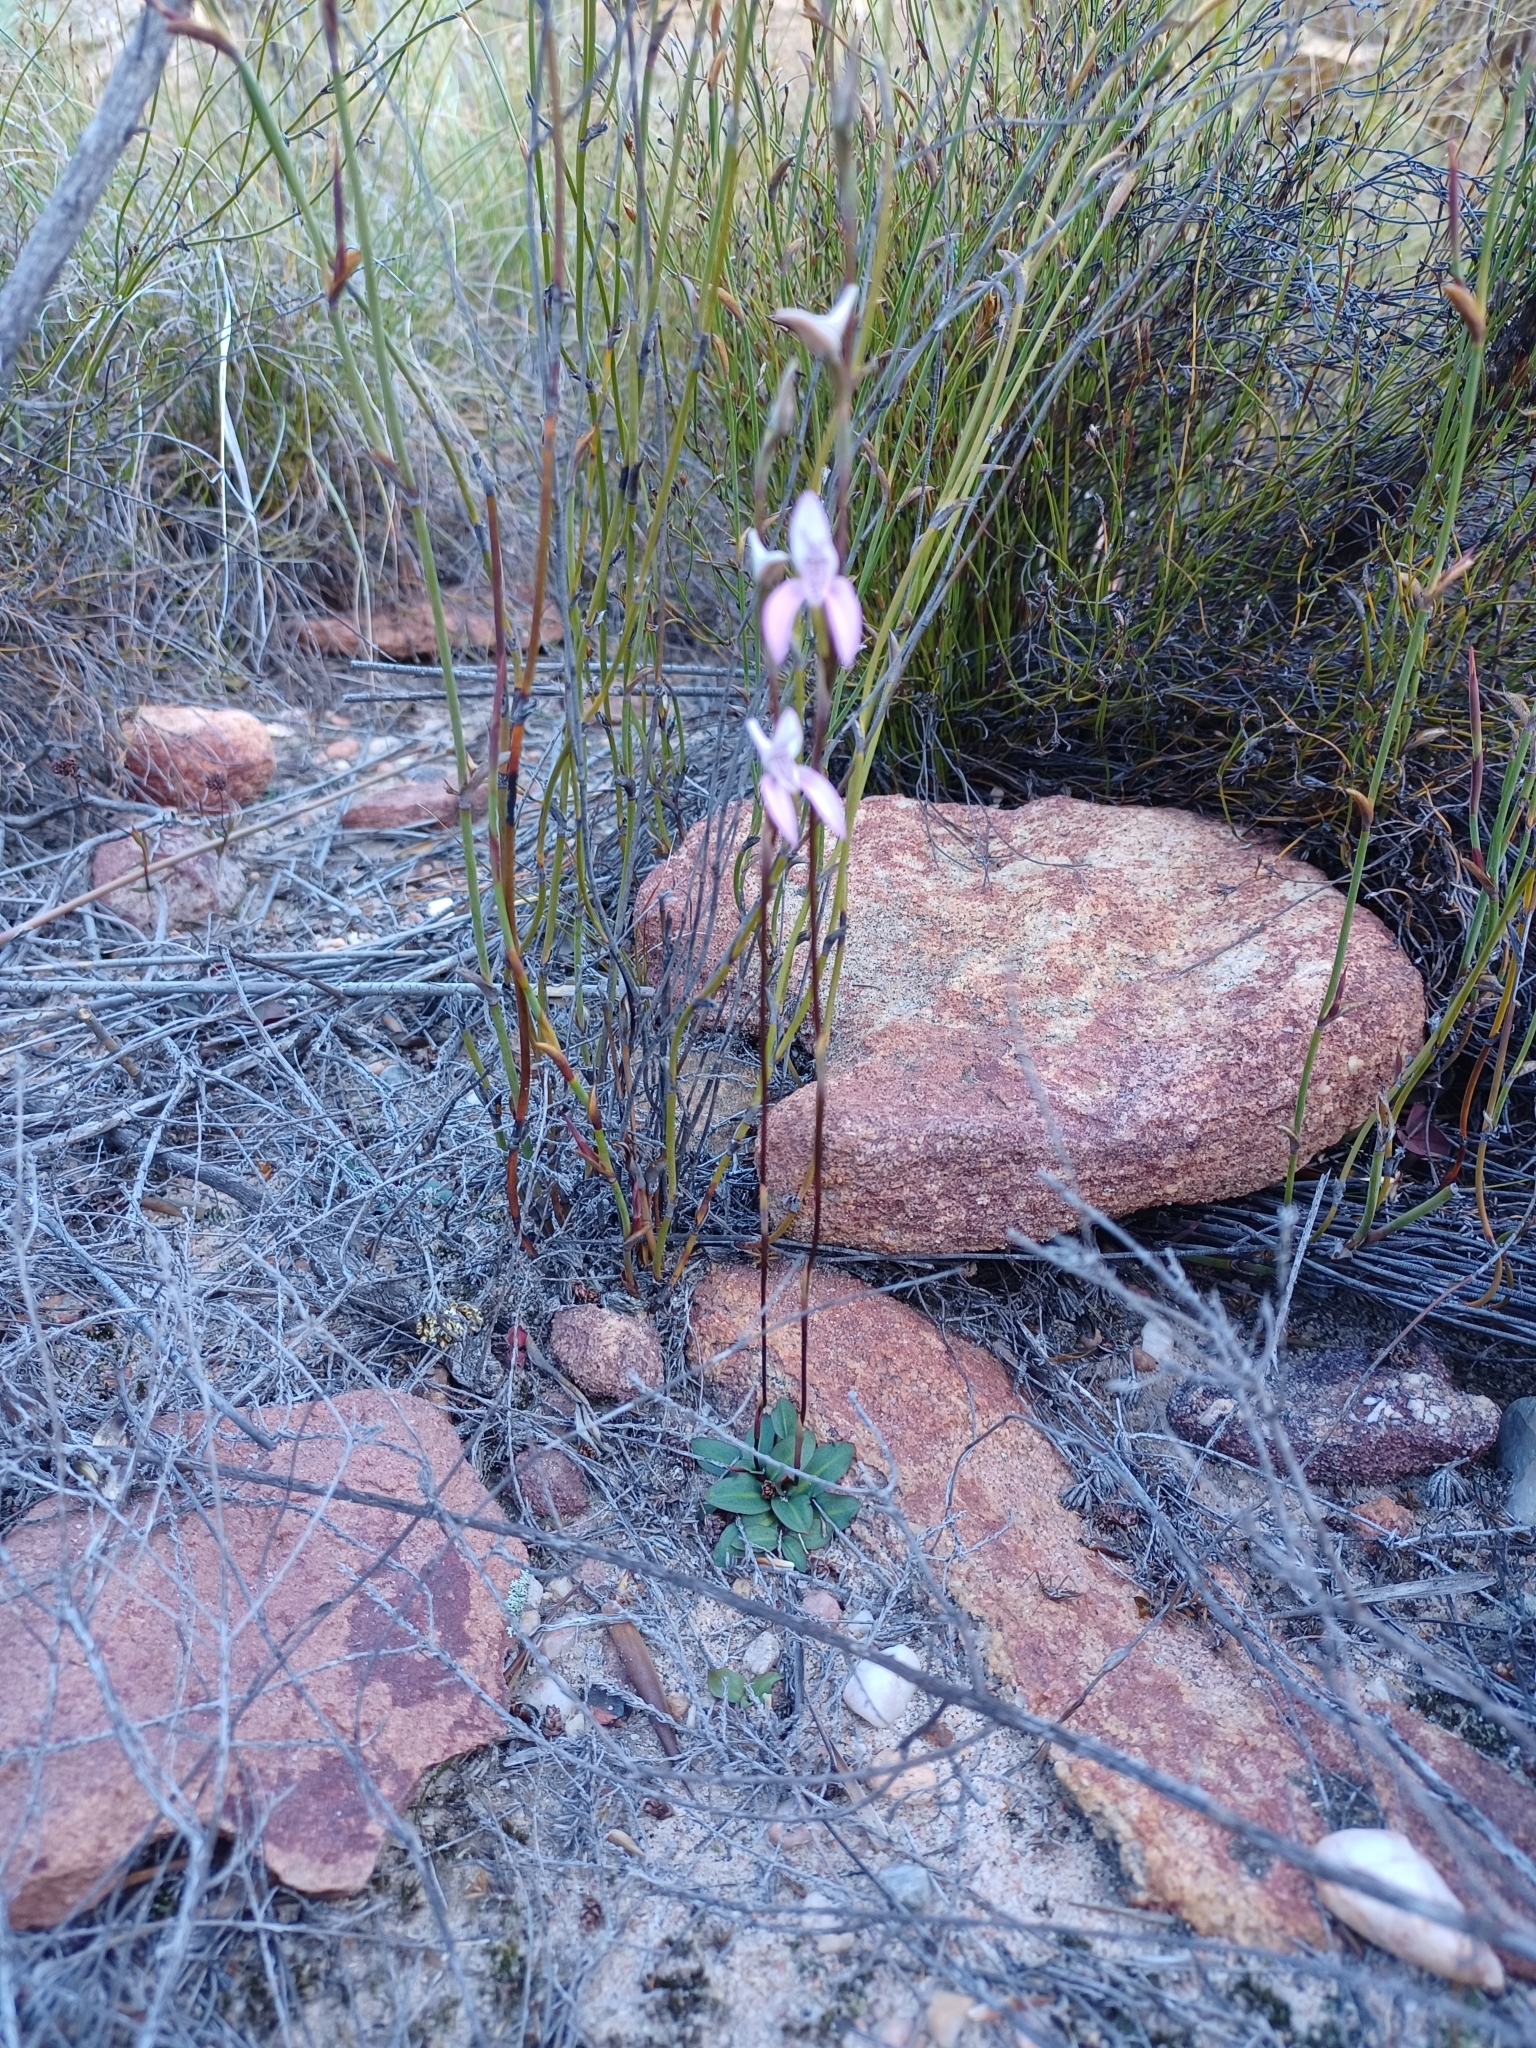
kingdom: Plantae
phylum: Tracheophyta
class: Liliopsida
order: Asparagales
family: Orchidaceae
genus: Disa
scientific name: Disa bifida
